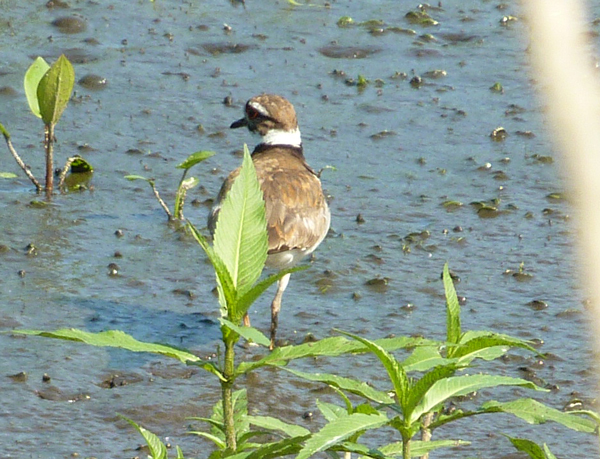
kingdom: Animalia
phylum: Chordata
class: Aves
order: Charadriiformes
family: Charadriidae
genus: Charadrius
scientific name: Charadrius vociferus
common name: Killdeer
